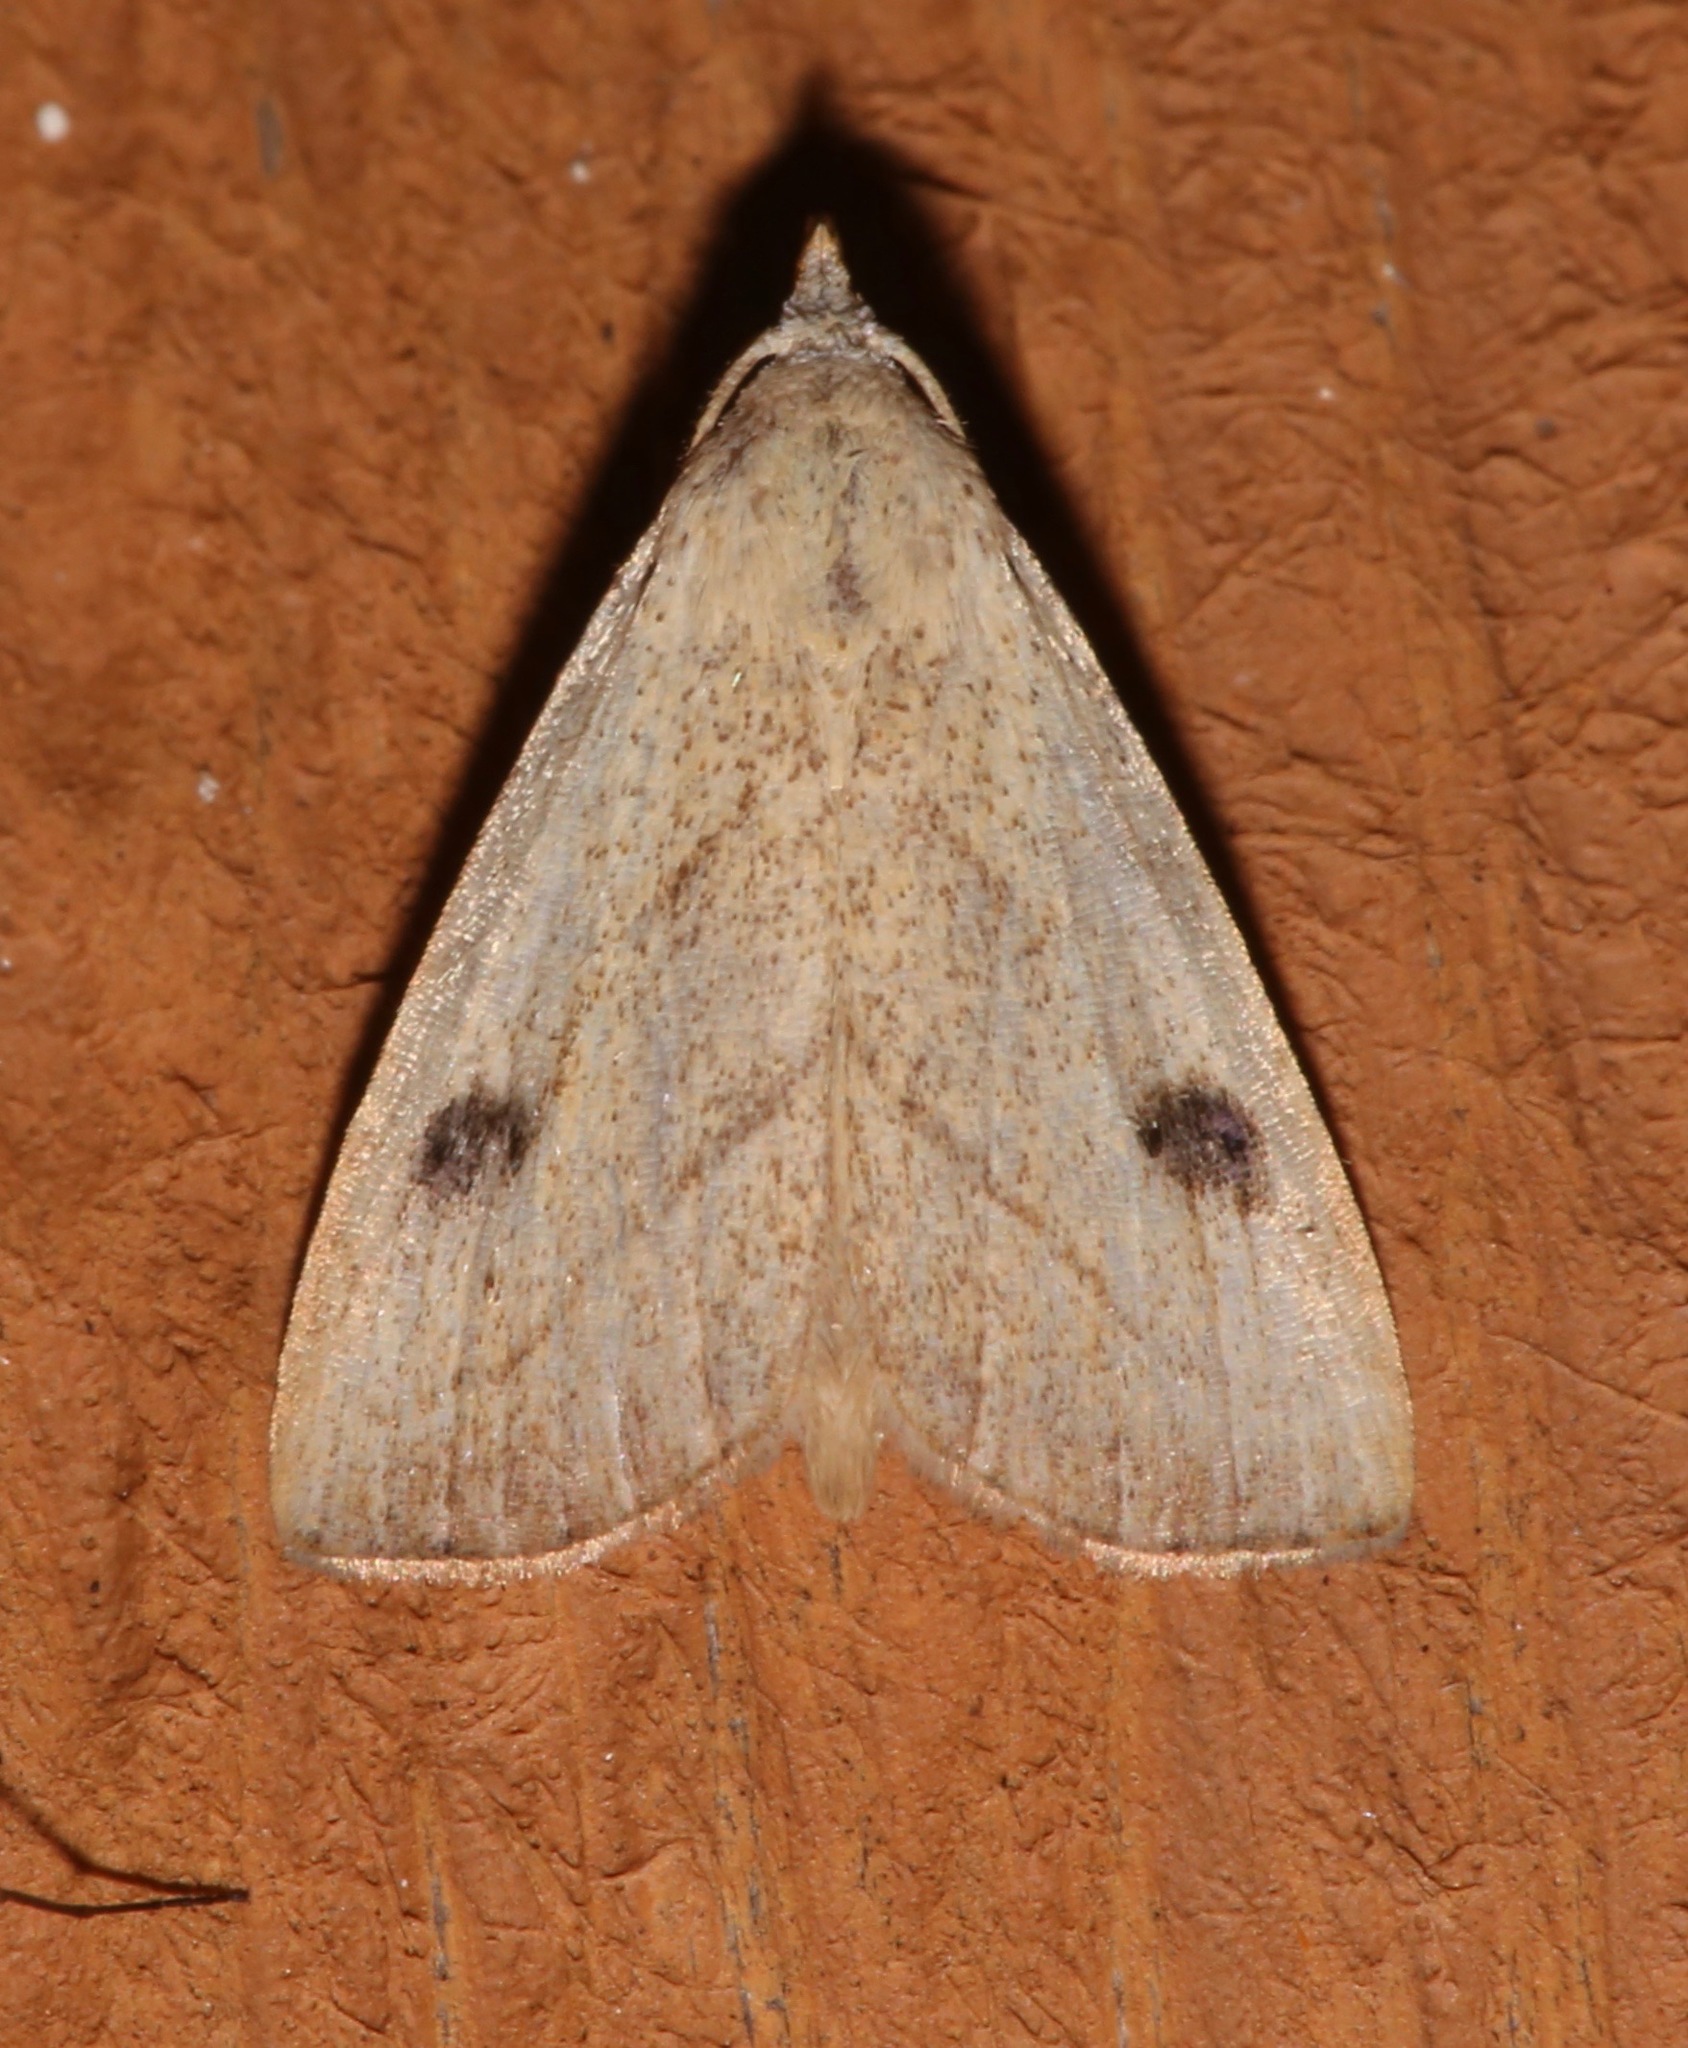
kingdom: Animalia
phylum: Arthropoda
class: Insecta
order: Lepidoptera
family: Erebidae
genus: Rivula
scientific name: Rivula propinqualis
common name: Spotted grass moth
